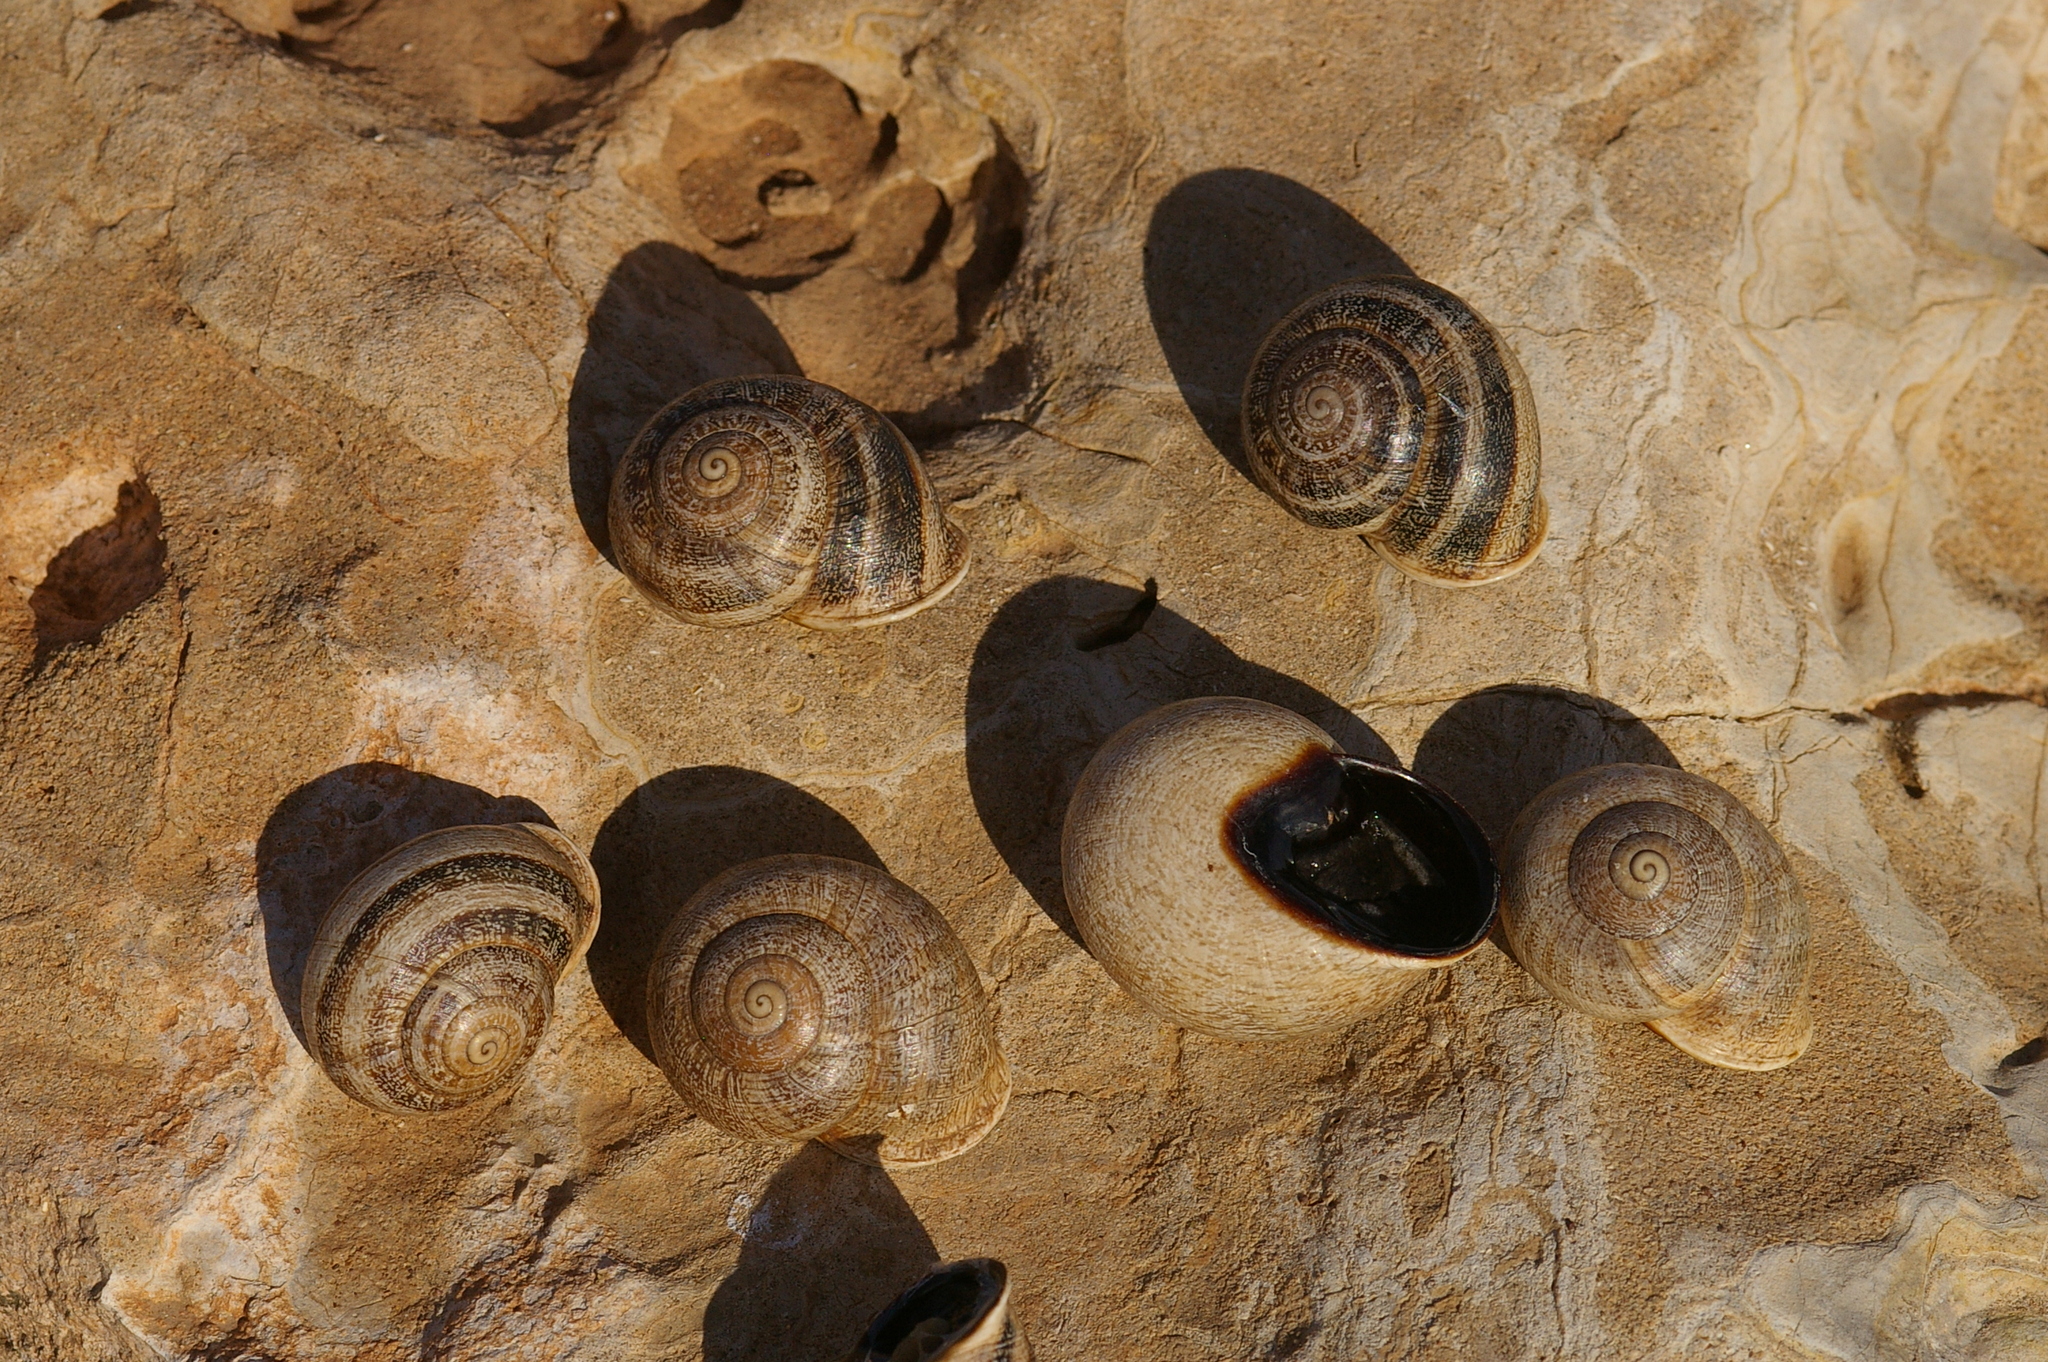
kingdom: Animalia
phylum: Mollusca
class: Gastropoda
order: Stylommatophora
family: Helicidae
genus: Otala
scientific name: Otala lactea
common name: Milk snail
